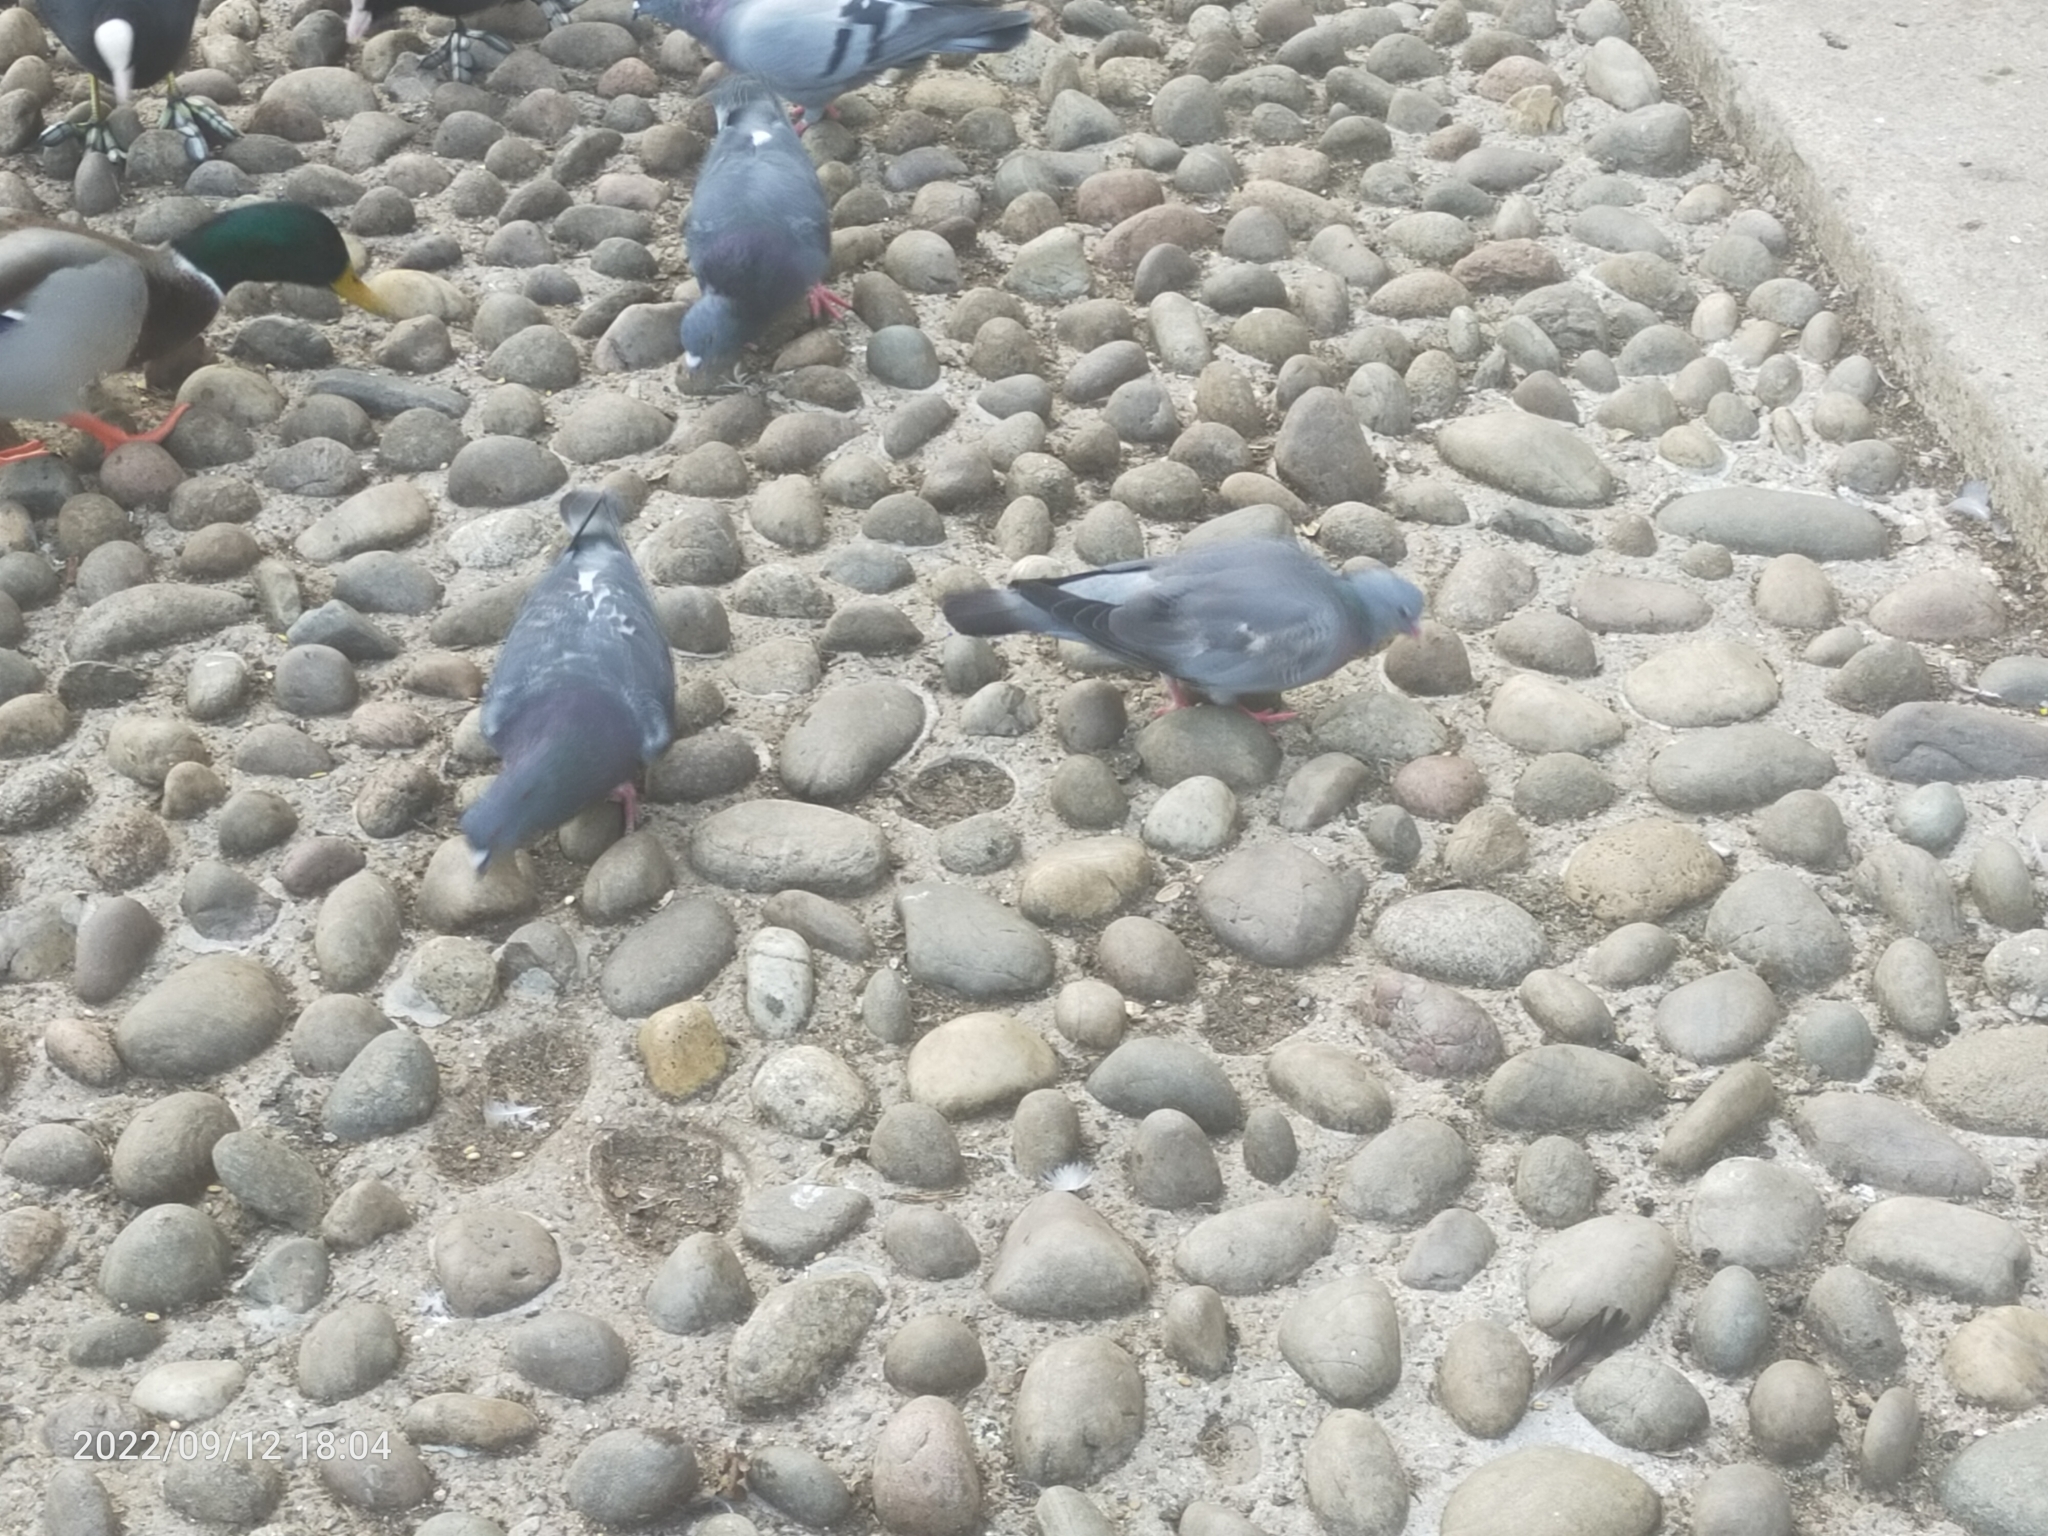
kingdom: Animalia
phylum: Chordata
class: Aves
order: Columbiformes
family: Columbidae
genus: Columba
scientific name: Columba oenas
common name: Stock dove
